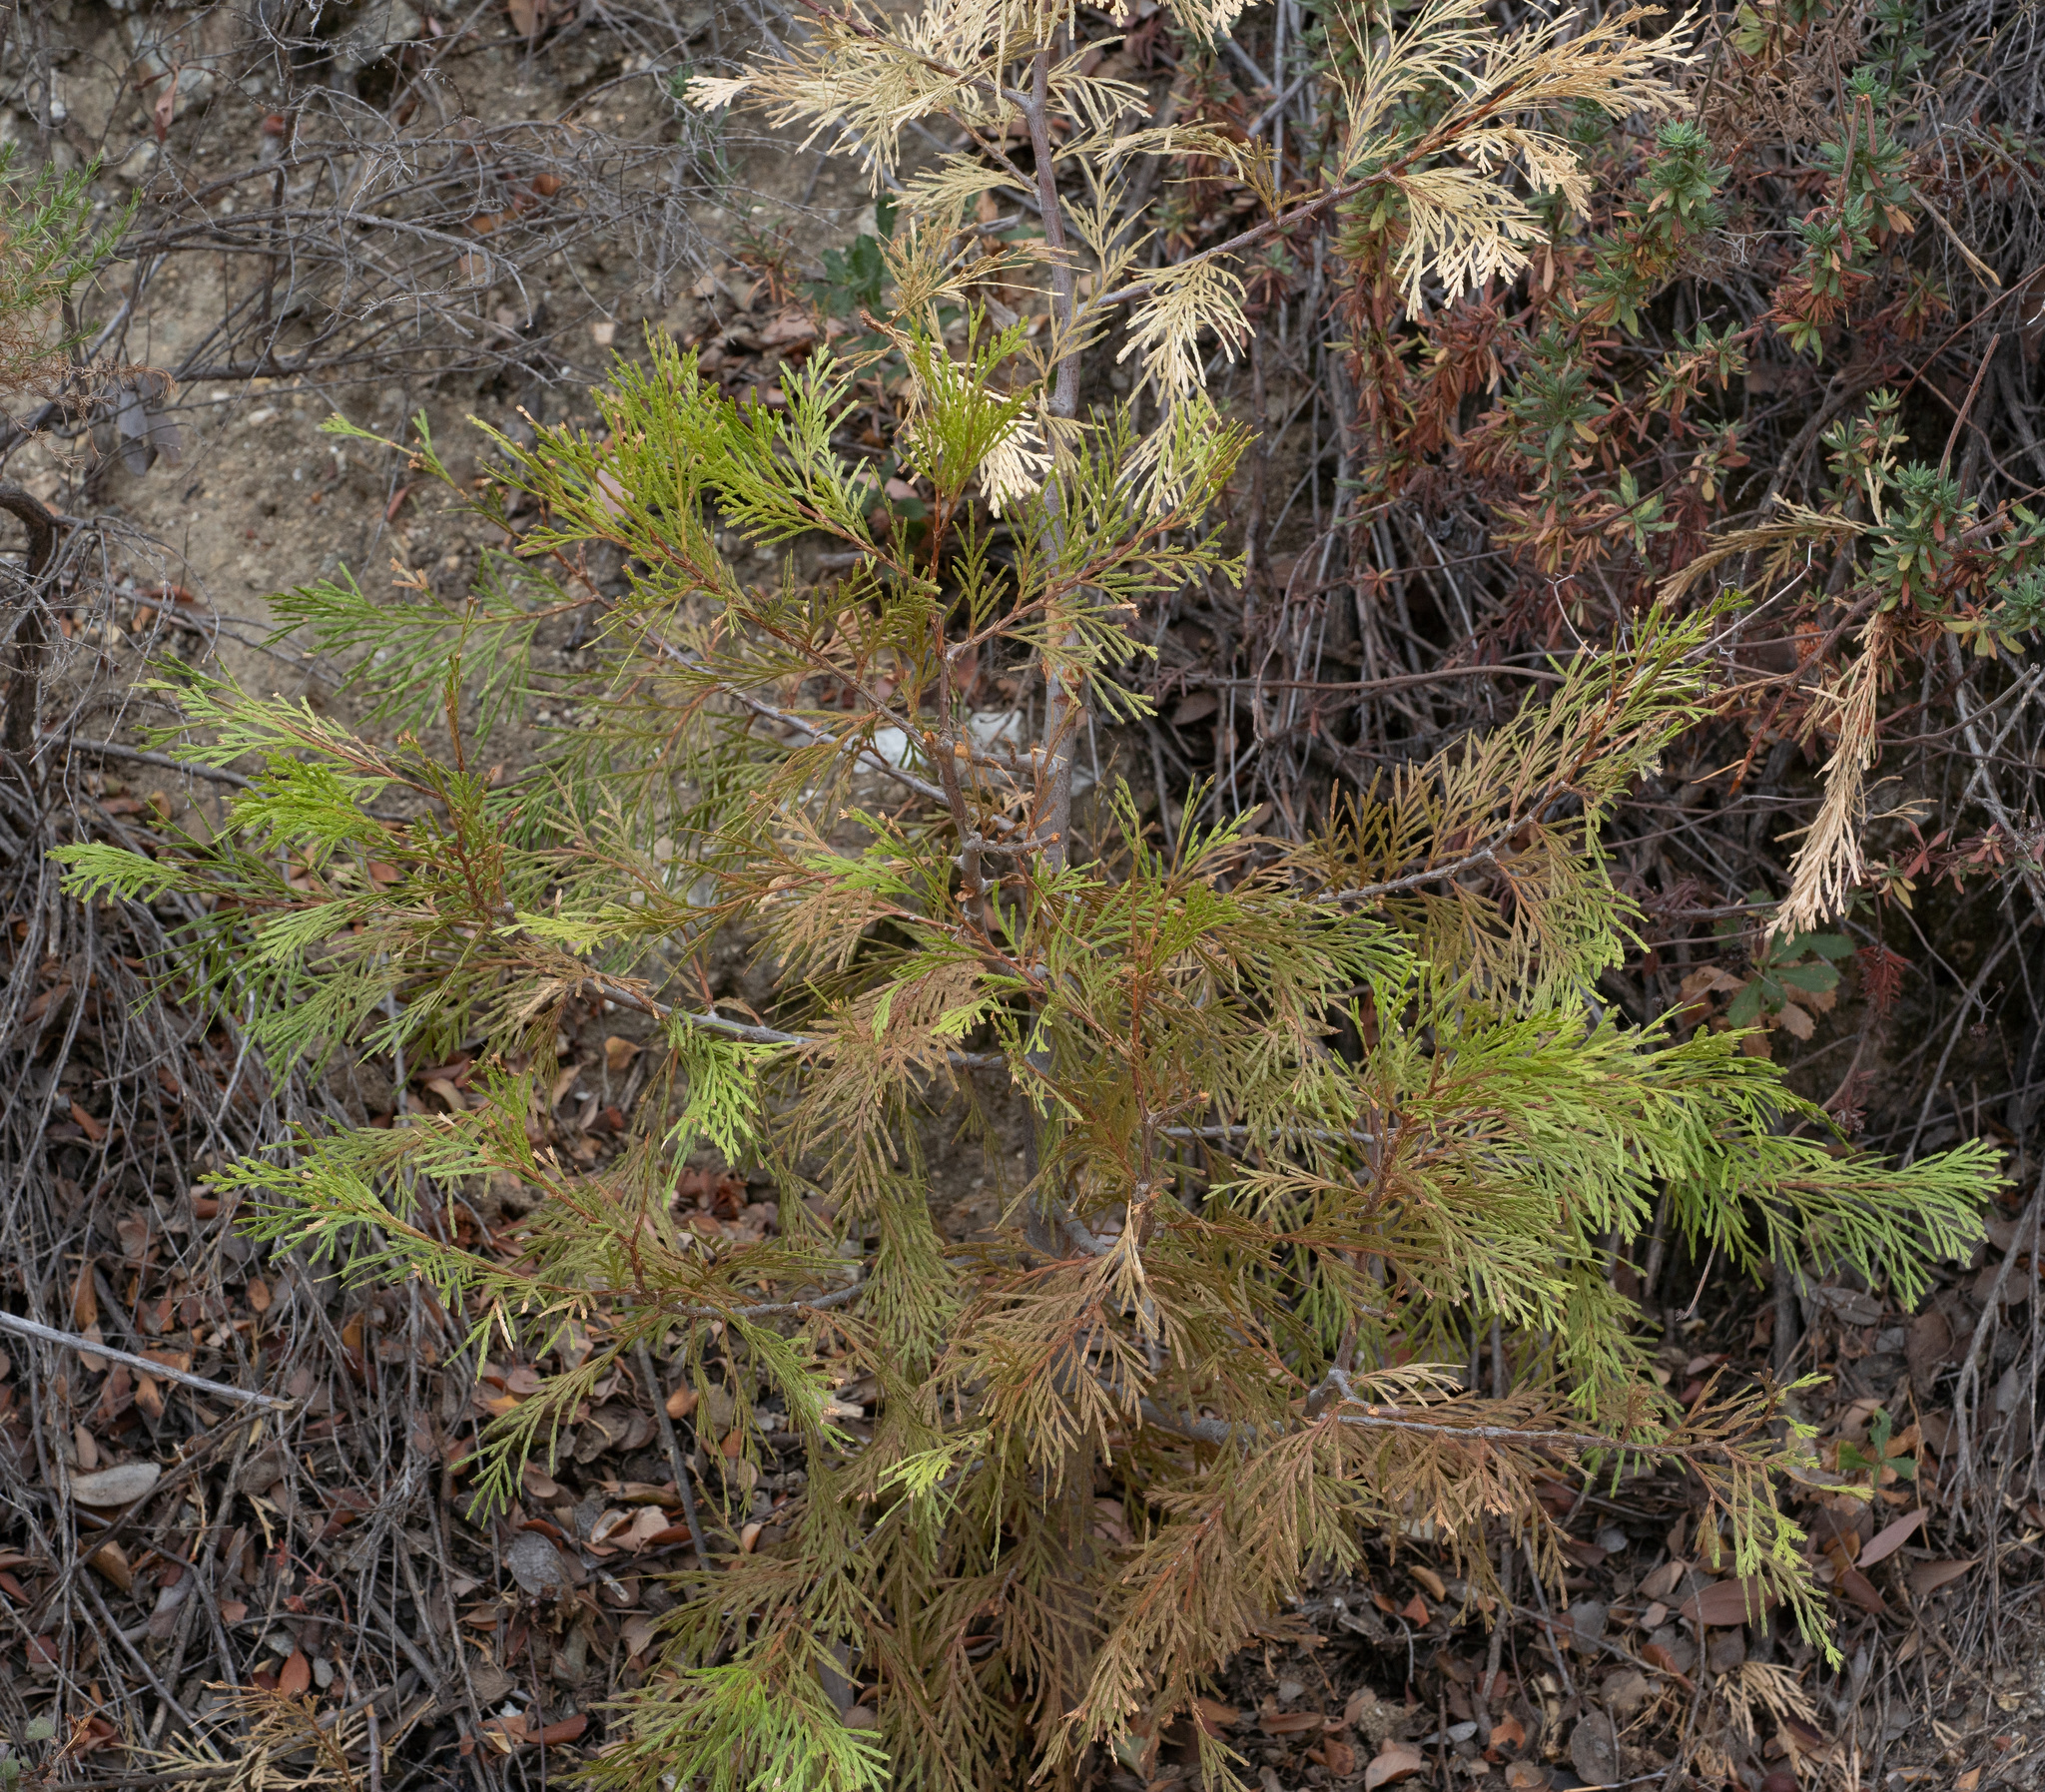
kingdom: Plantae
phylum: Tracheophyta
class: Pinopsida
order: Pinales
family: Cupressaceae
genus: Calocedrus
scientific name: Calocedrus decurrens
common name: Californian incense-cedar
